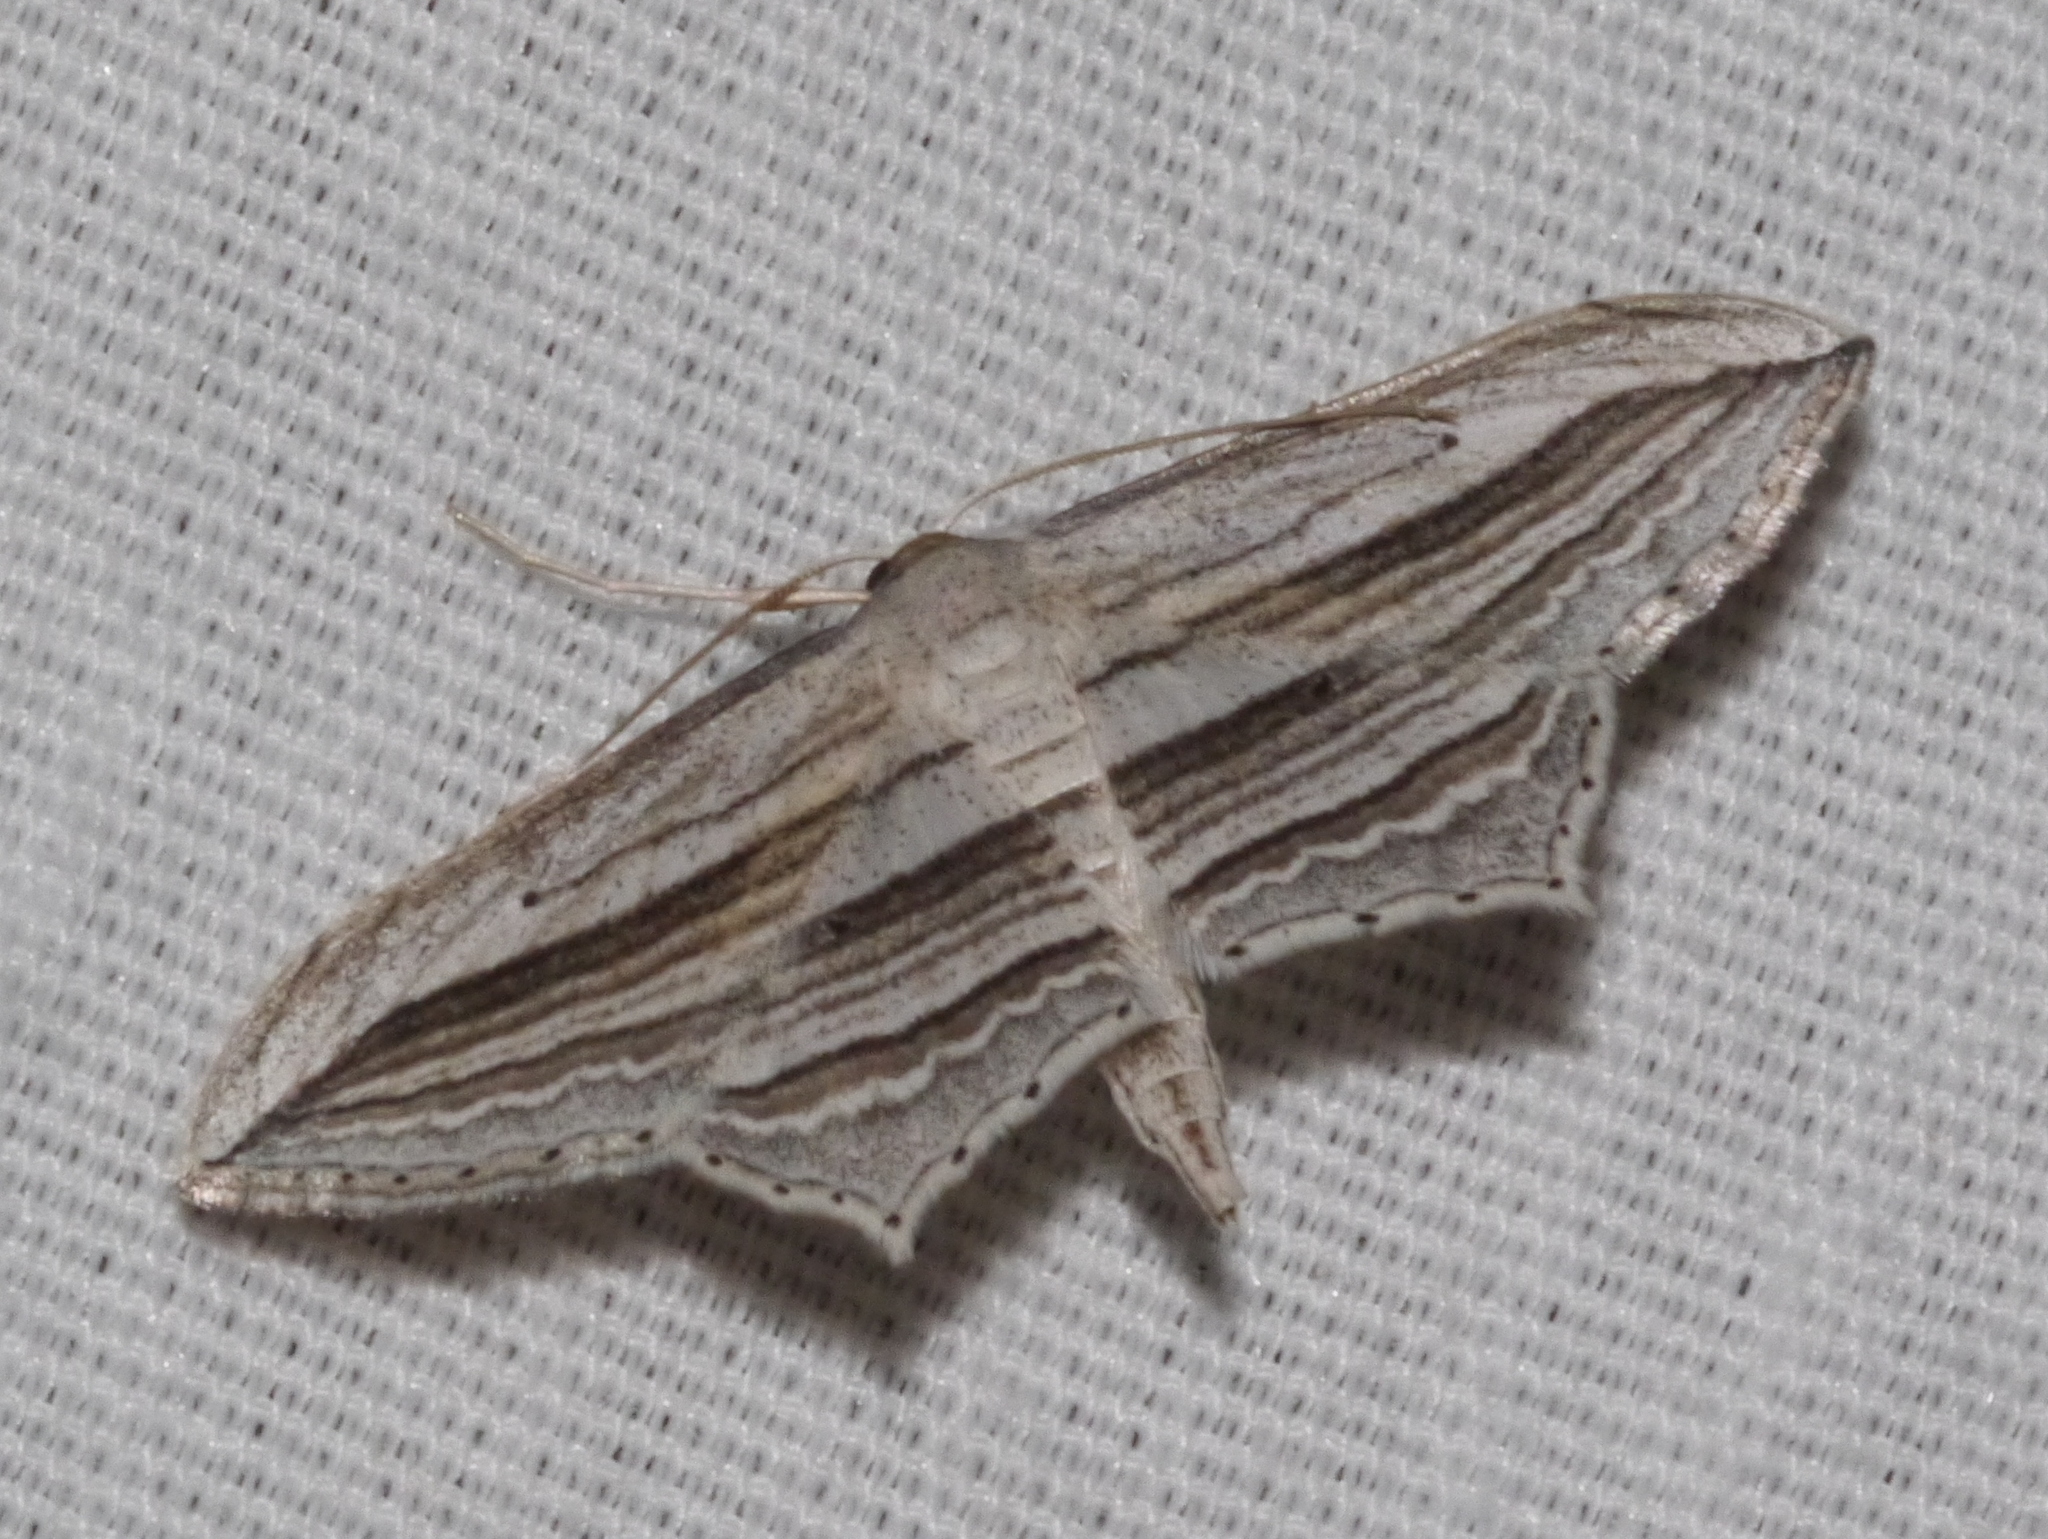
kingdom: Animalia
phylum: Arthropoda
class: Insecta
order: Lepidoptera
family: Geometridae
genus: Arcobara
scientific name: Arcobara multilineata
